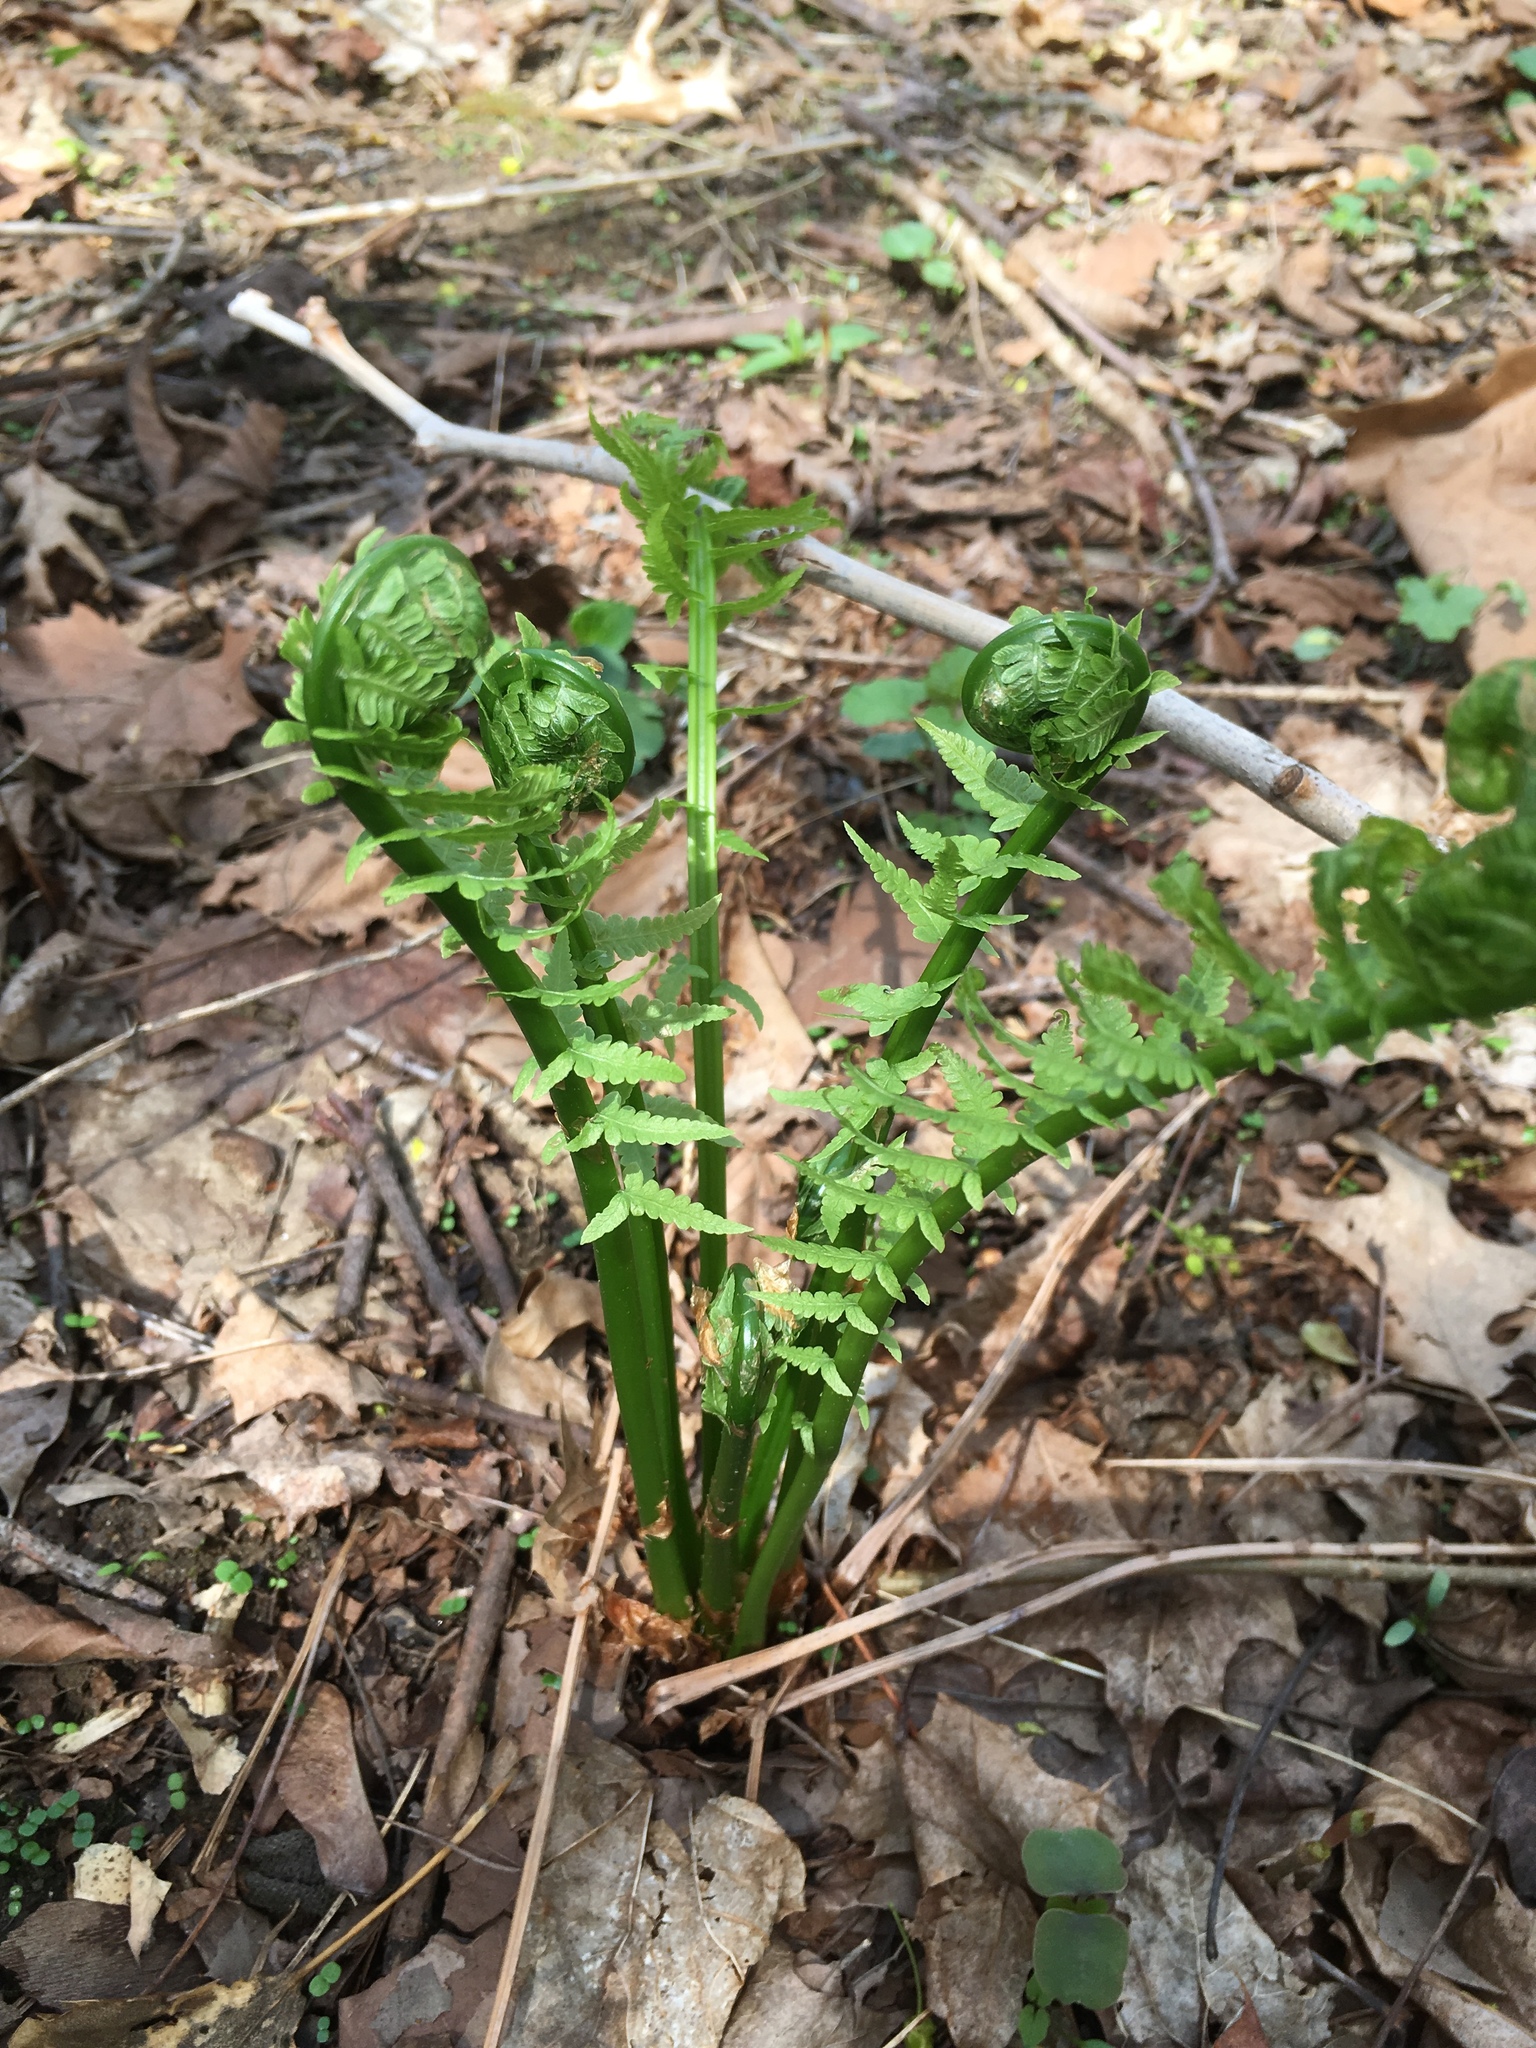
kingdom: Plantae
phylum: Tracheophyta
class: Polypodiopsida
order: Polypodiales
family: Onocleaceae
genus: Matteuccia
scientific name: Matteuccia struthiopteris
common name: Ostrich fern
